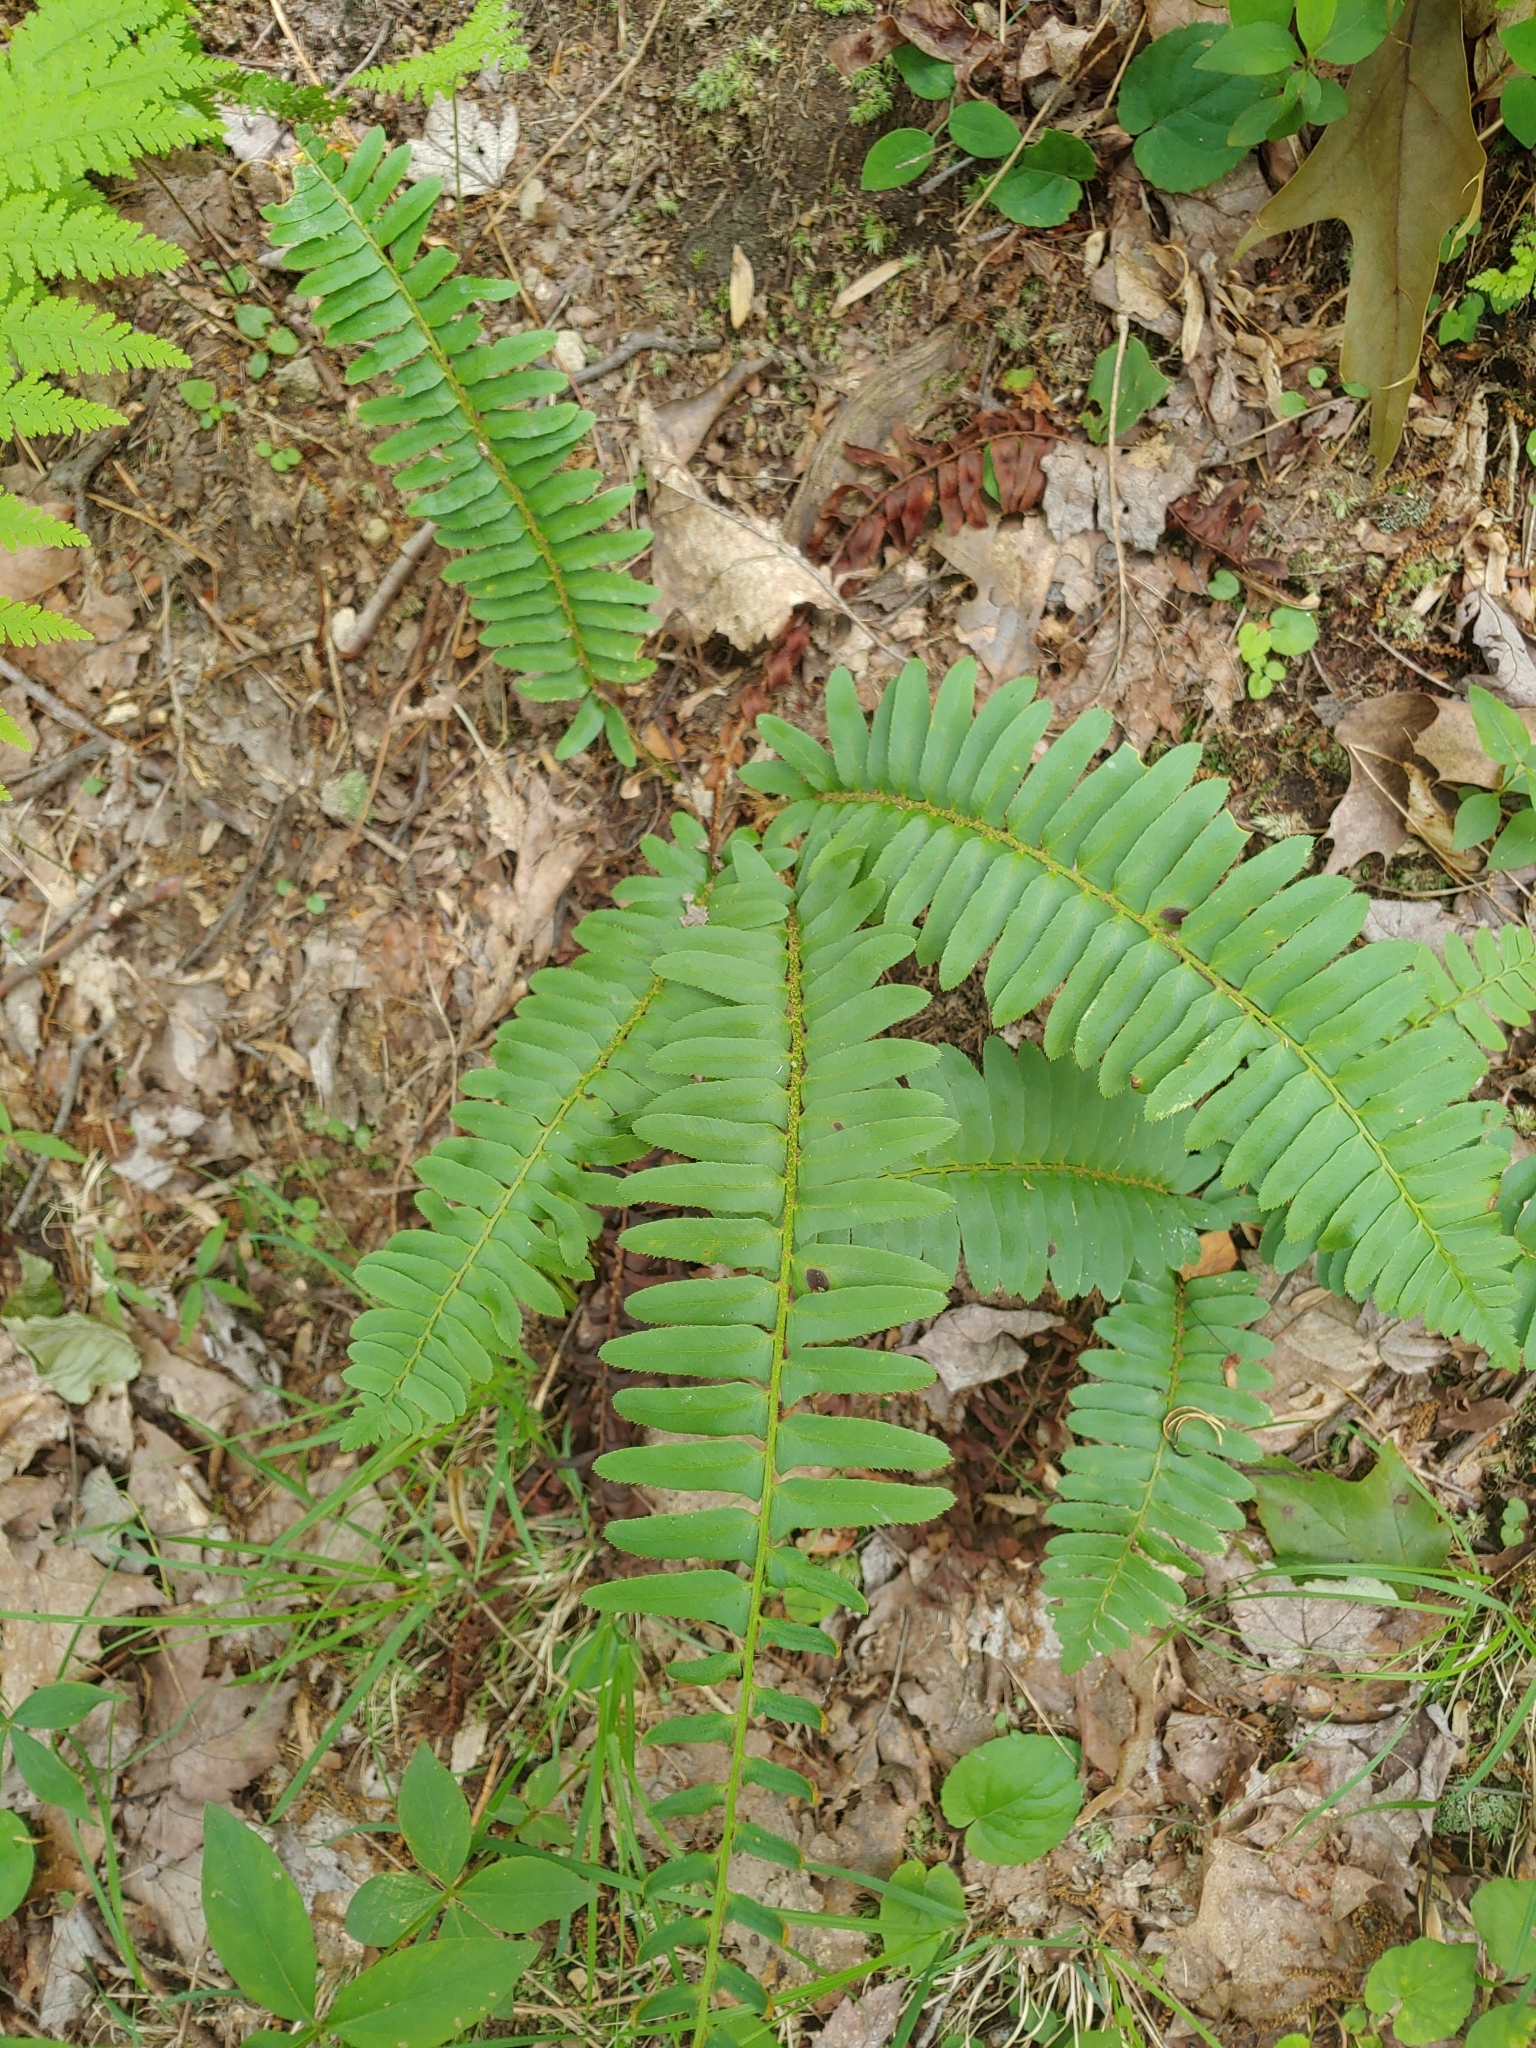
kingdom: Plantae
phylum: Tracheophyta
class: Polypodiopsida
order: Polypodiales
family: Dryopteridaceae
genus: Polystichum
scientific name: Polystichum acrostichoides
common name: Christmas fern
